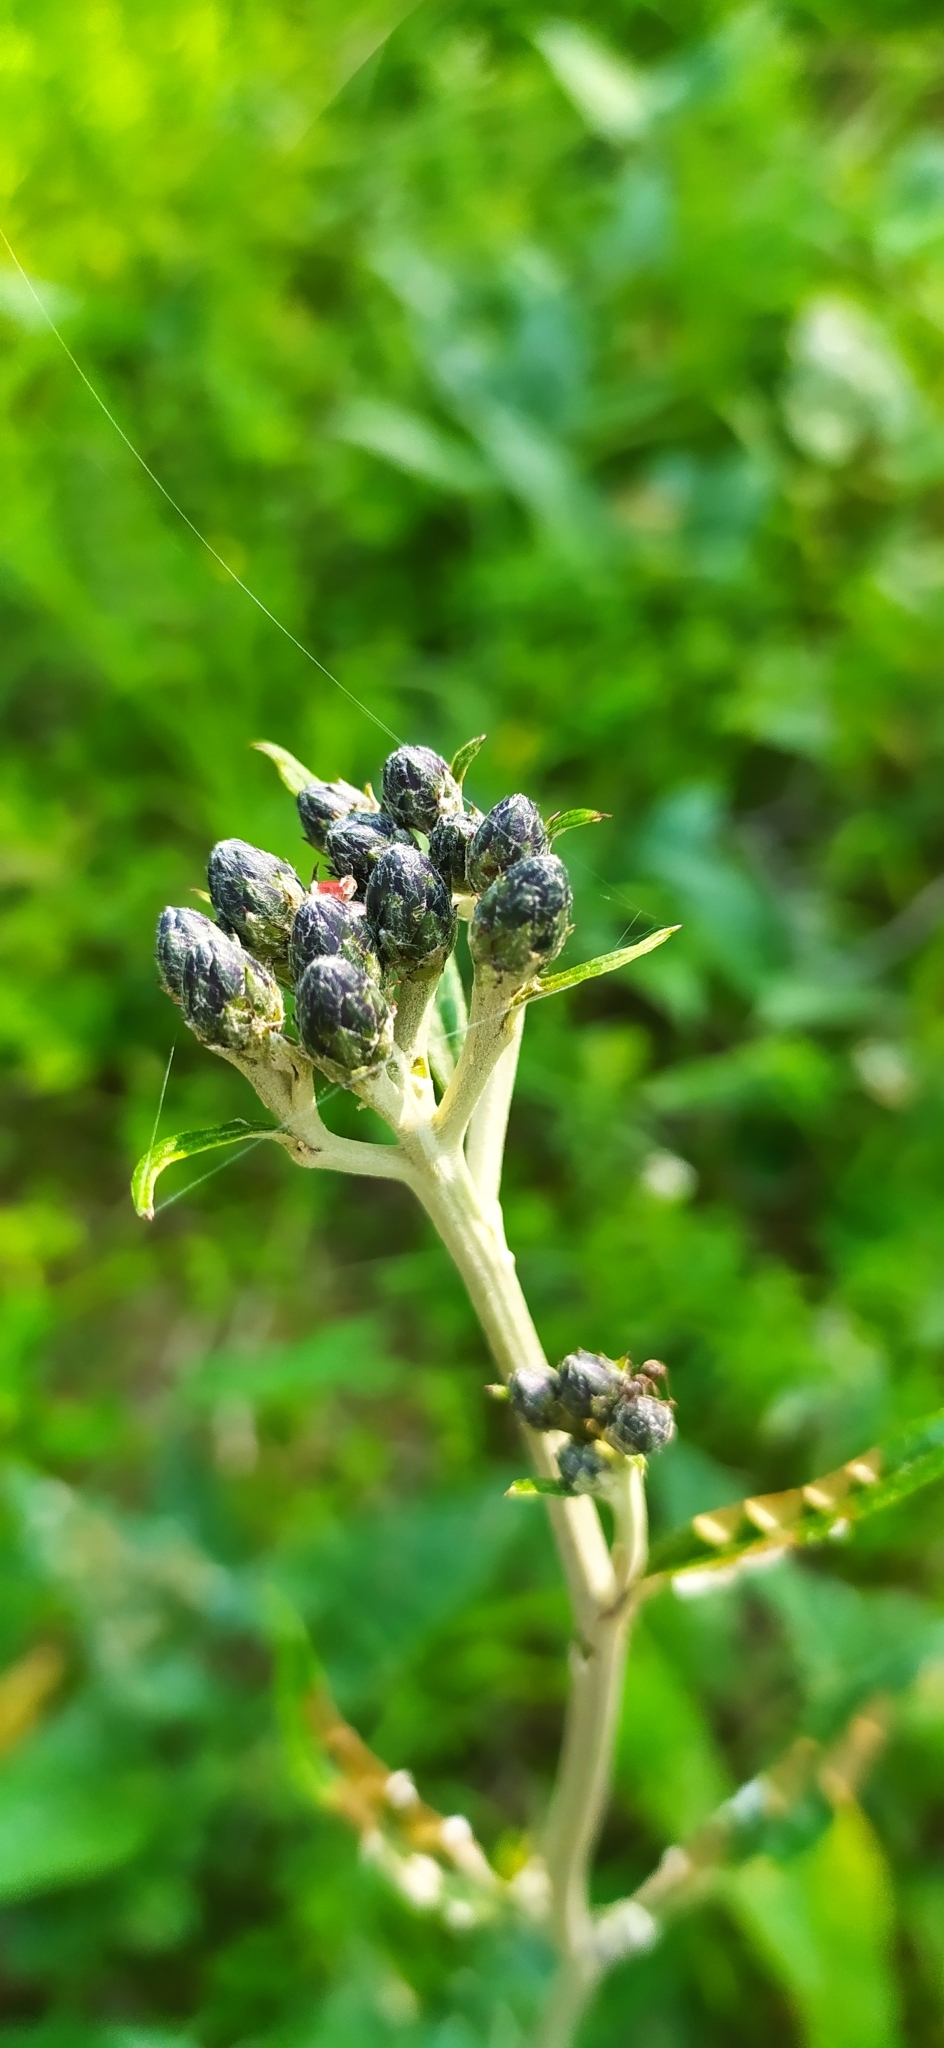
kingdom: Plantae
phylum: Tracheophyta
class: Magnoliopsida
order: Asterales
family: Asteraceae
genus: Saussurea
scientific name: Saussurea controversa
